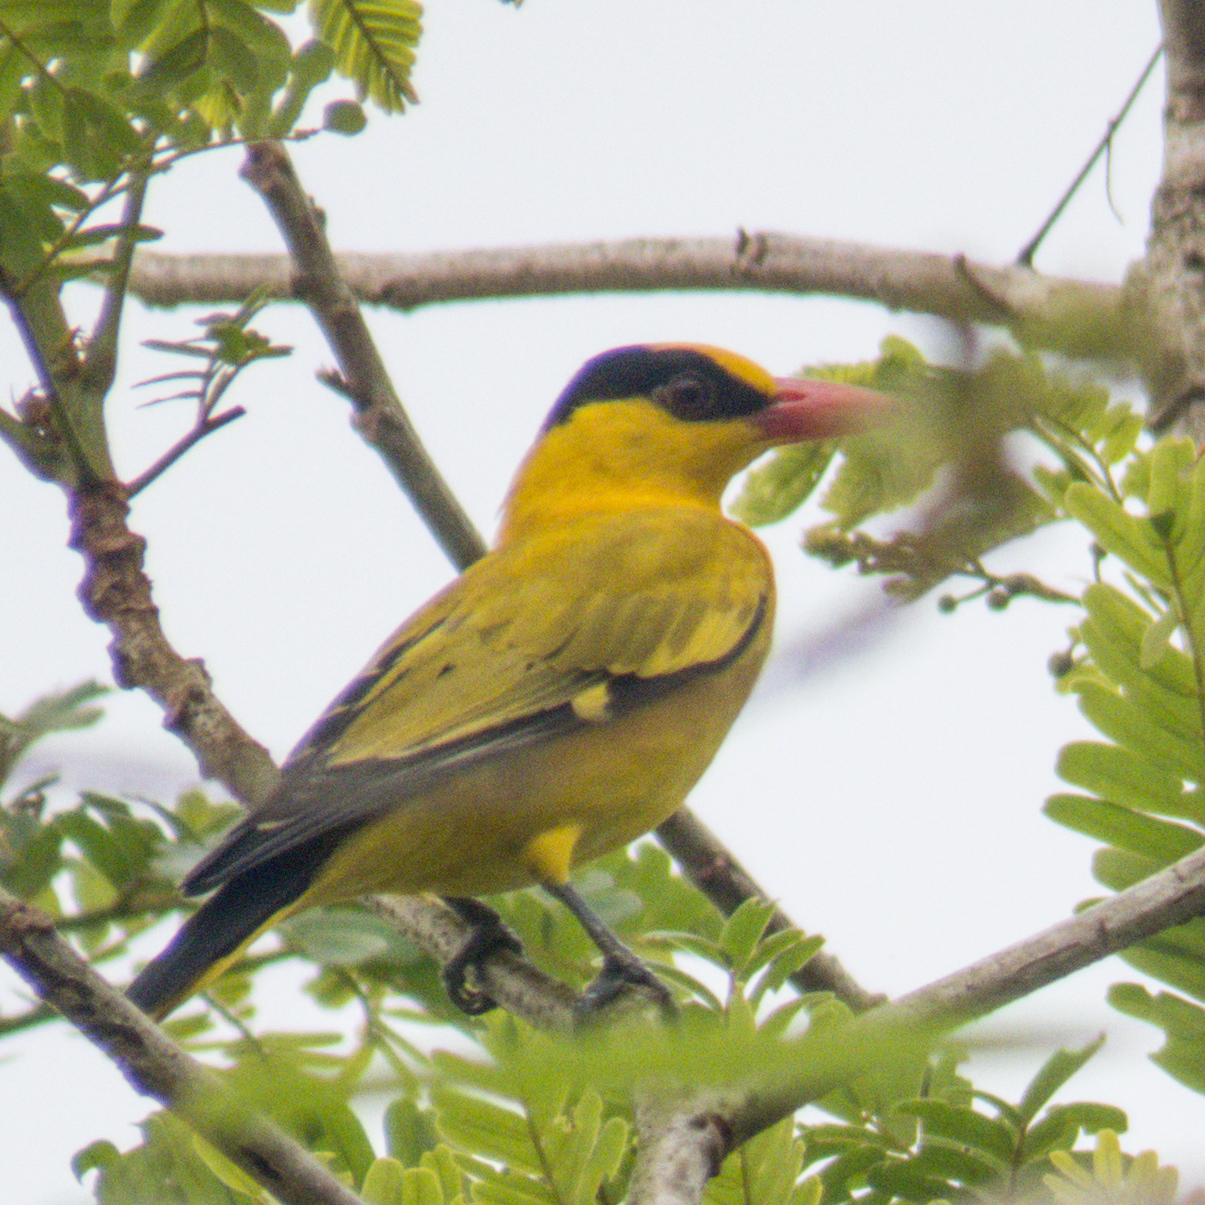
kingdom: Animalia
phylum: Chordata
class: Aves
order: Passeriformes
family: Oriolidae
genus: Oriolus
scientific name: Oriolus chinensis
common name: Black-naped oriole
